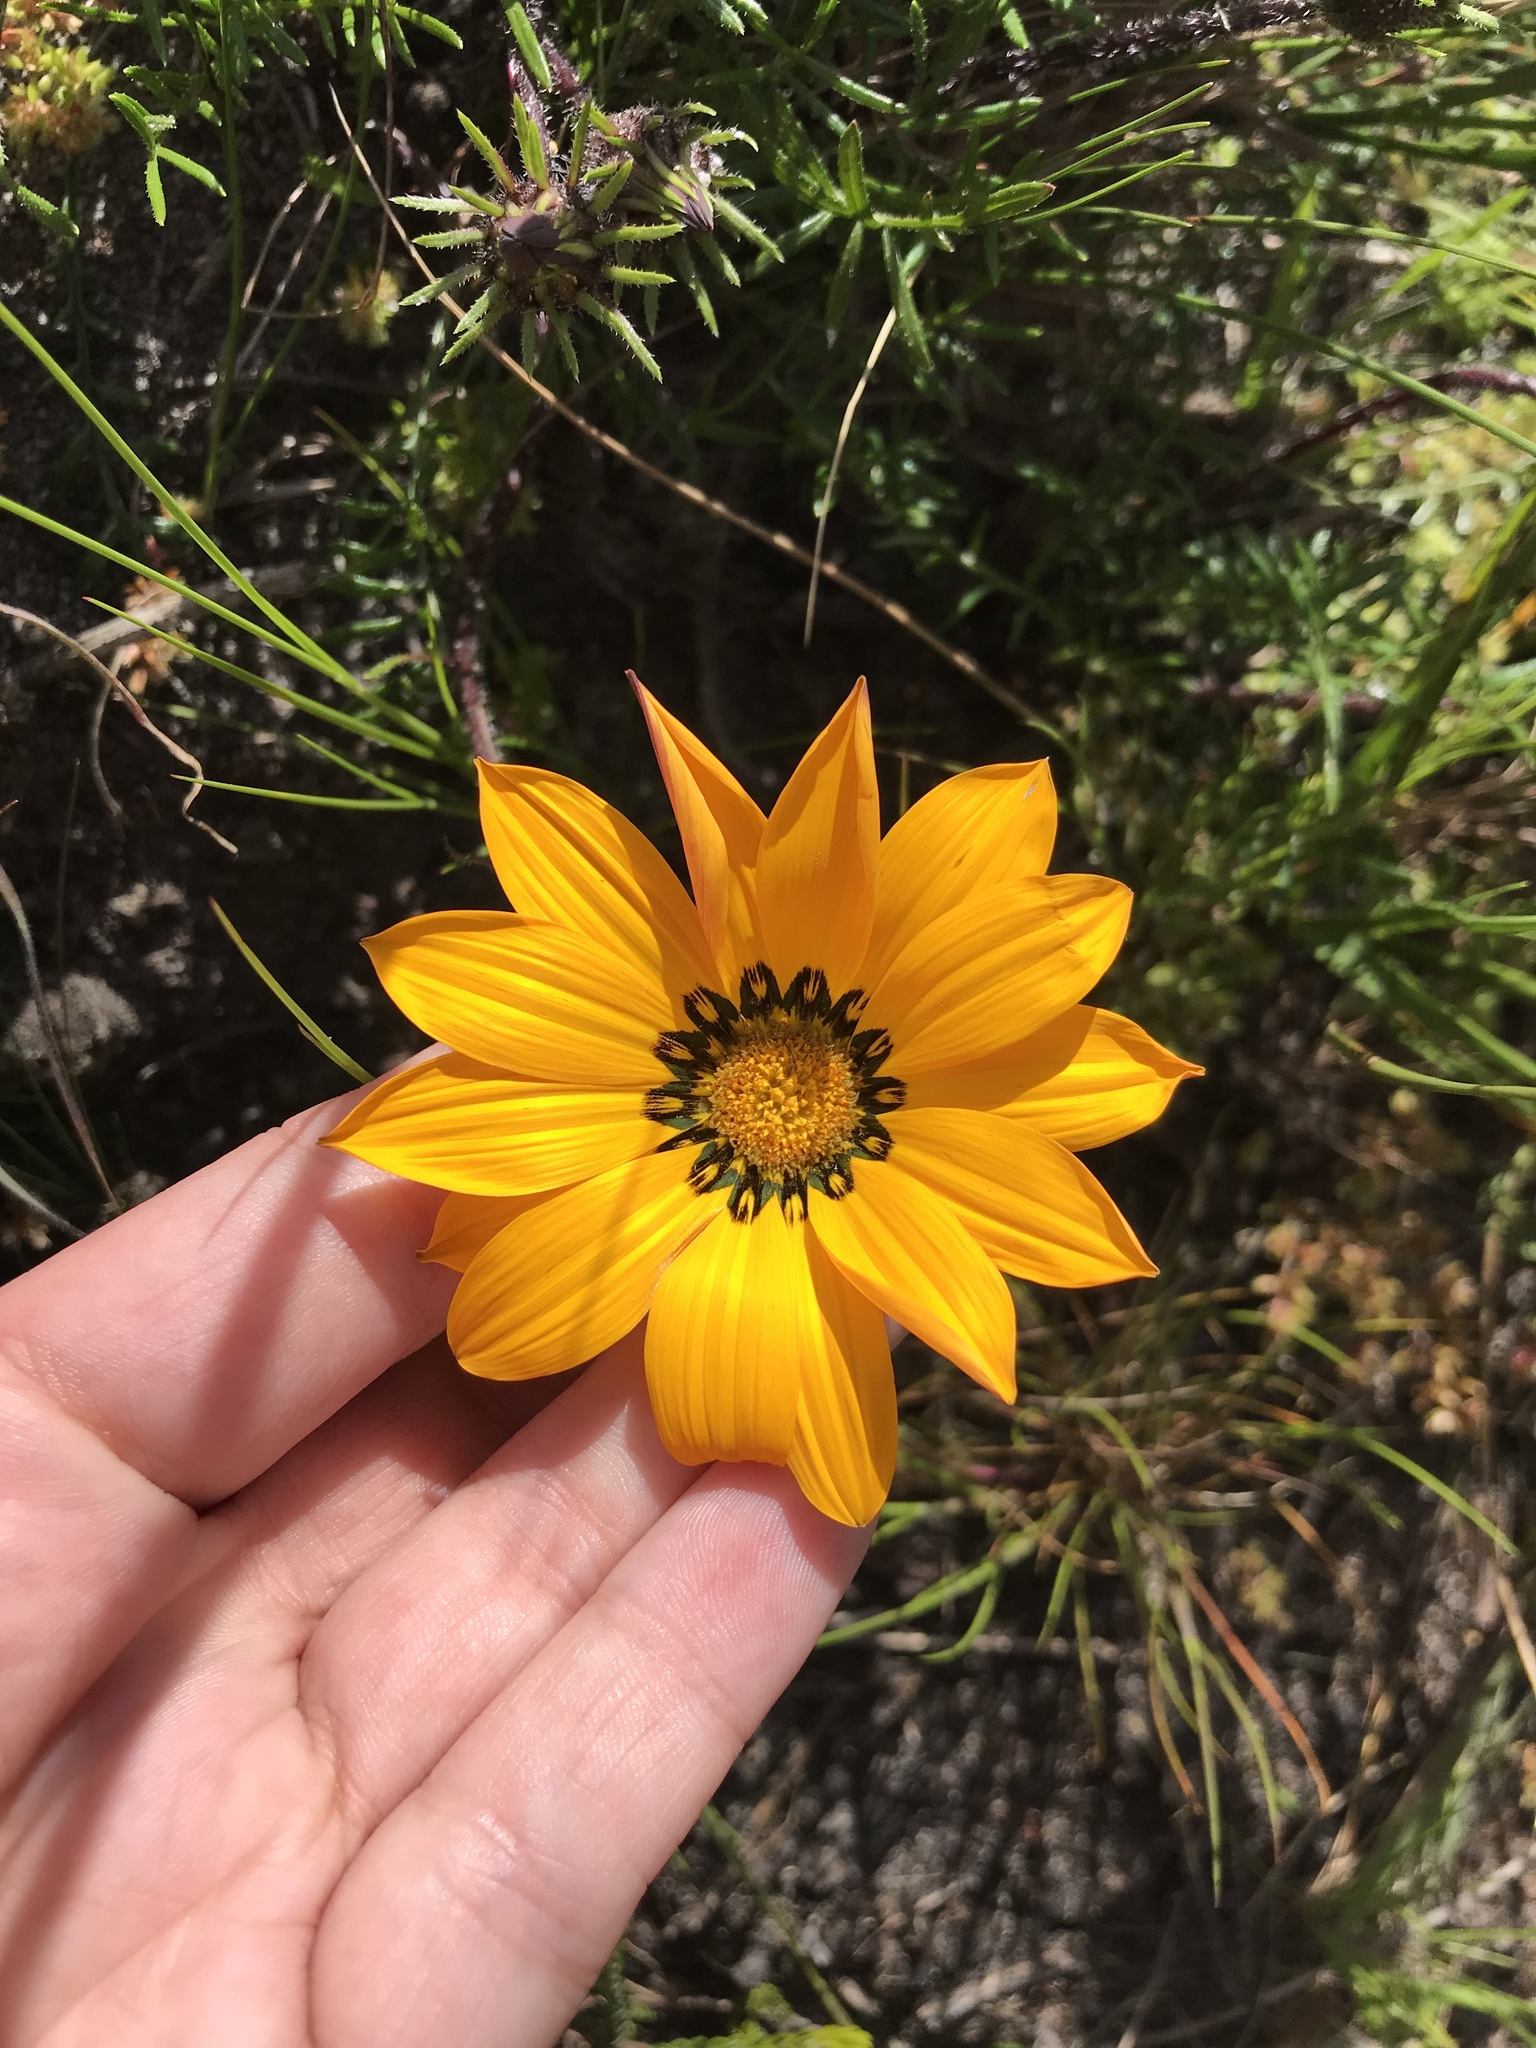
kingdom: Plantae
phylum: Tracheophyta
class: Magnoliopsida
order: Asterales
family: Asteraceae
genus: Gazania
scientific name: Gazania pectinata
